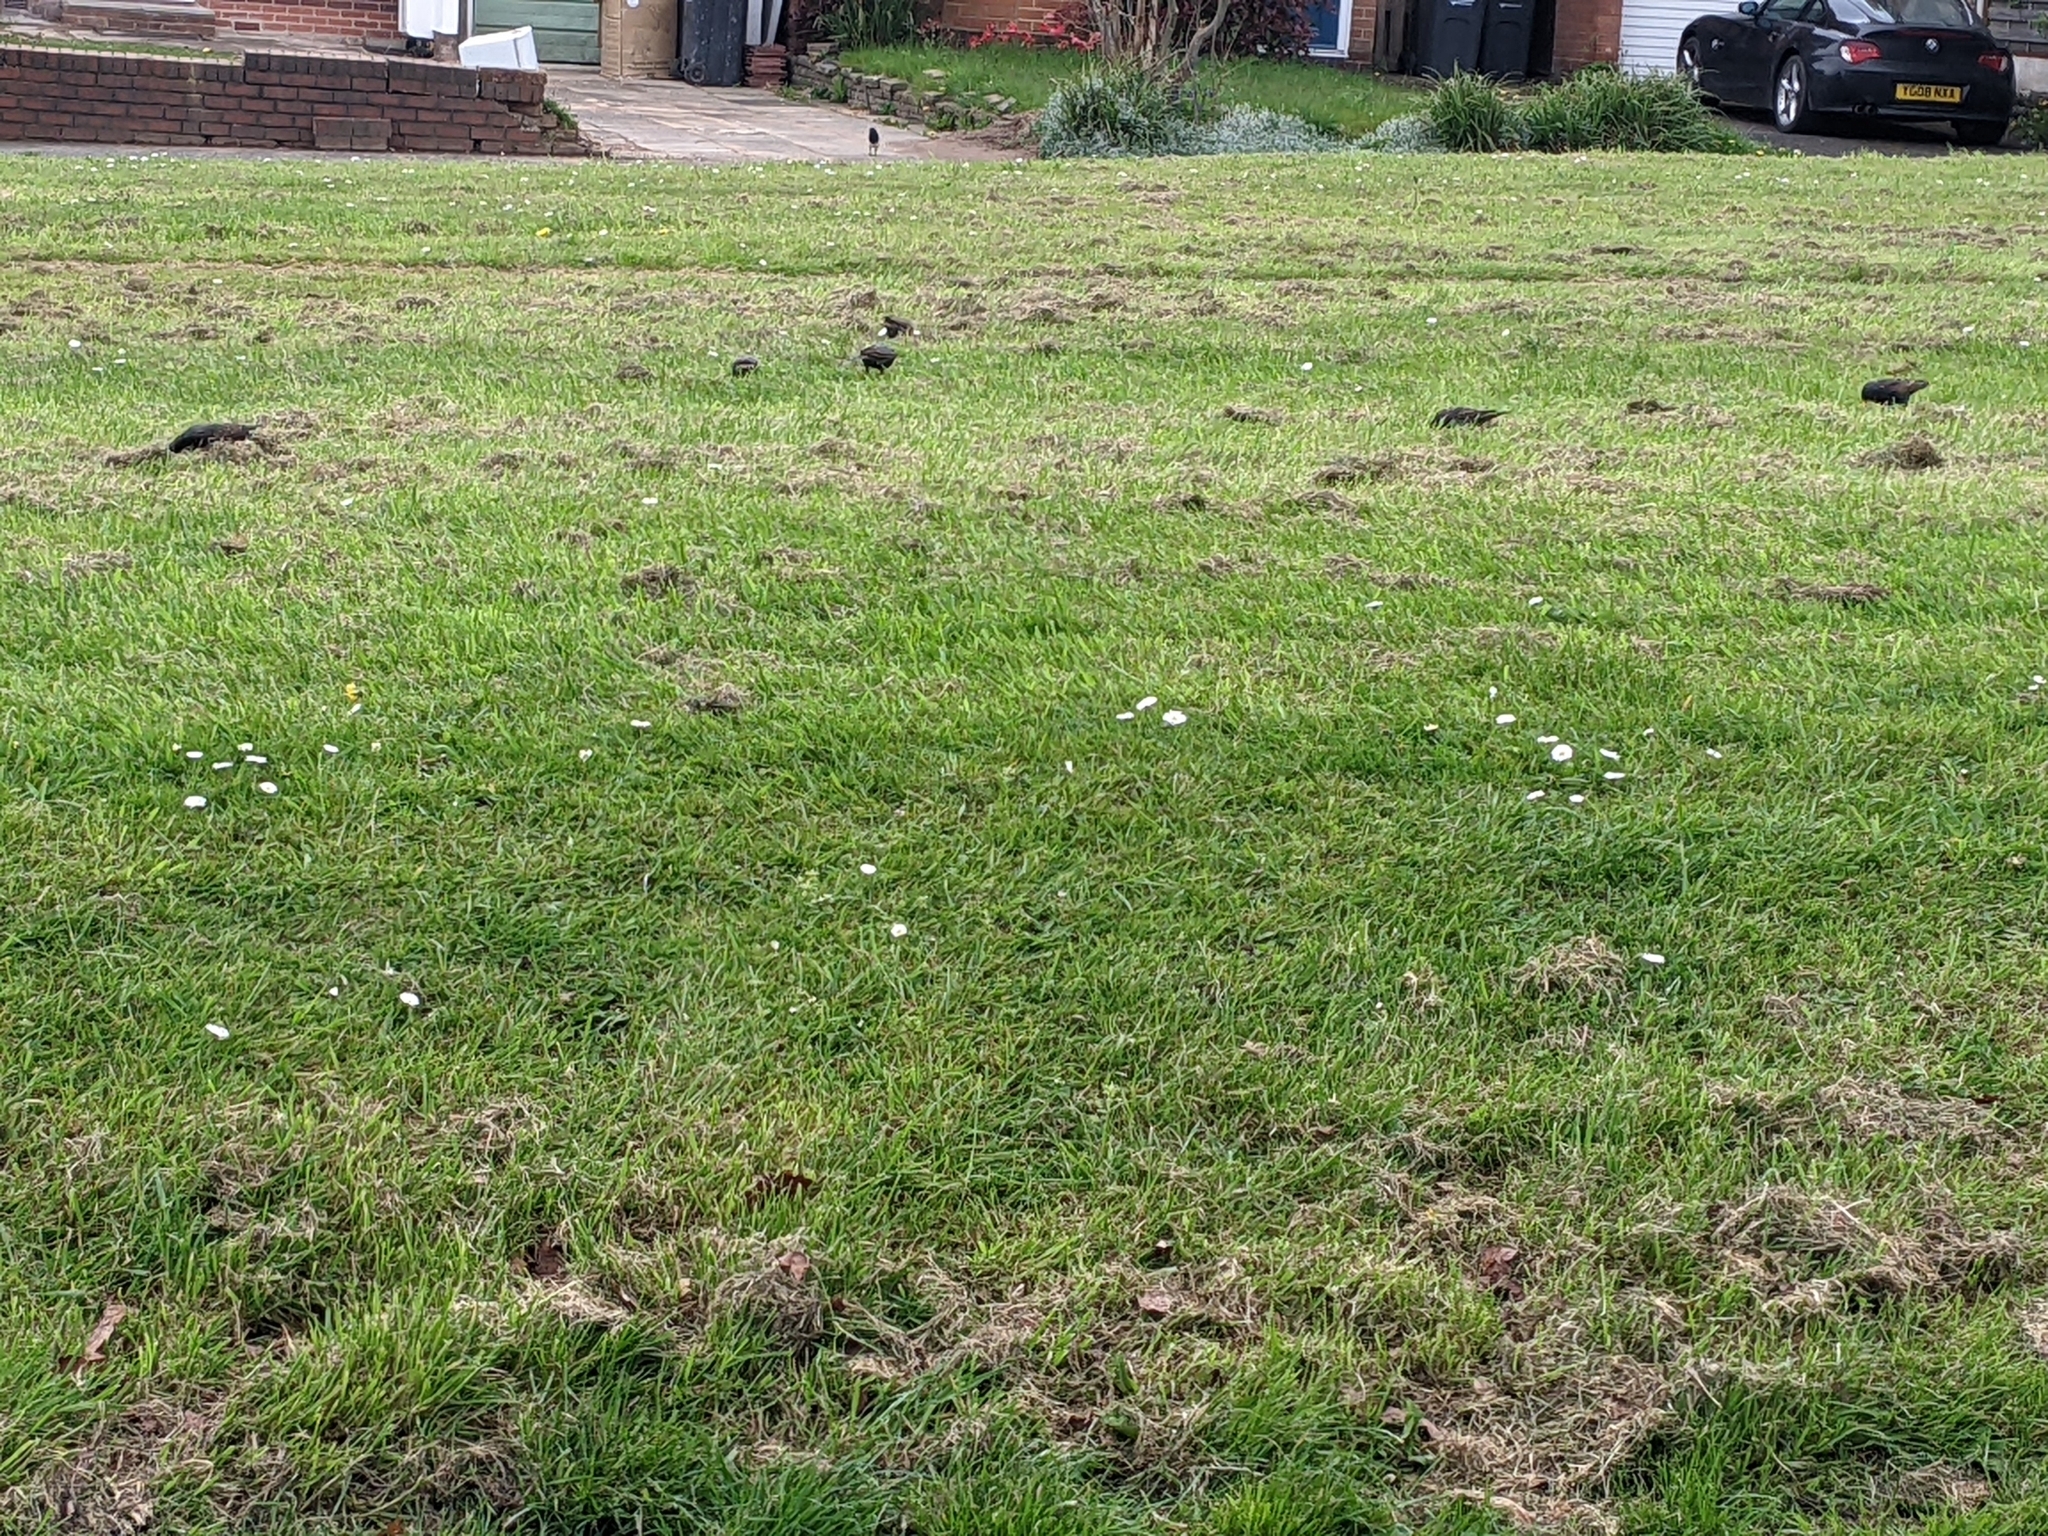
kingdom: Animalia
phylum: Chordata
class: Aves
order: Passeriformes
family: Sturnidae
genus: Sturnus
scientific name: Sturnus vulgaris
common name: Common starling
